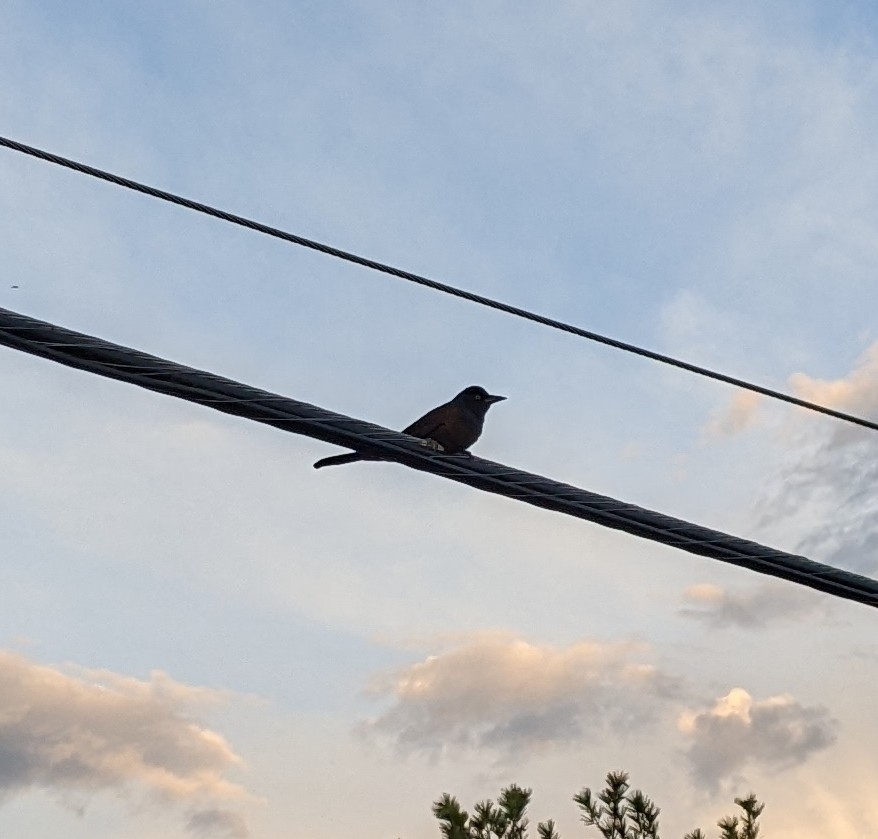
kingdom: Animalia
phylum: Chordata
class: Aves
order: Passeriformes
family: Icteridae
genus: Quiscalus
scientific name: Quiscalus quiscula
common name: Common grackle
